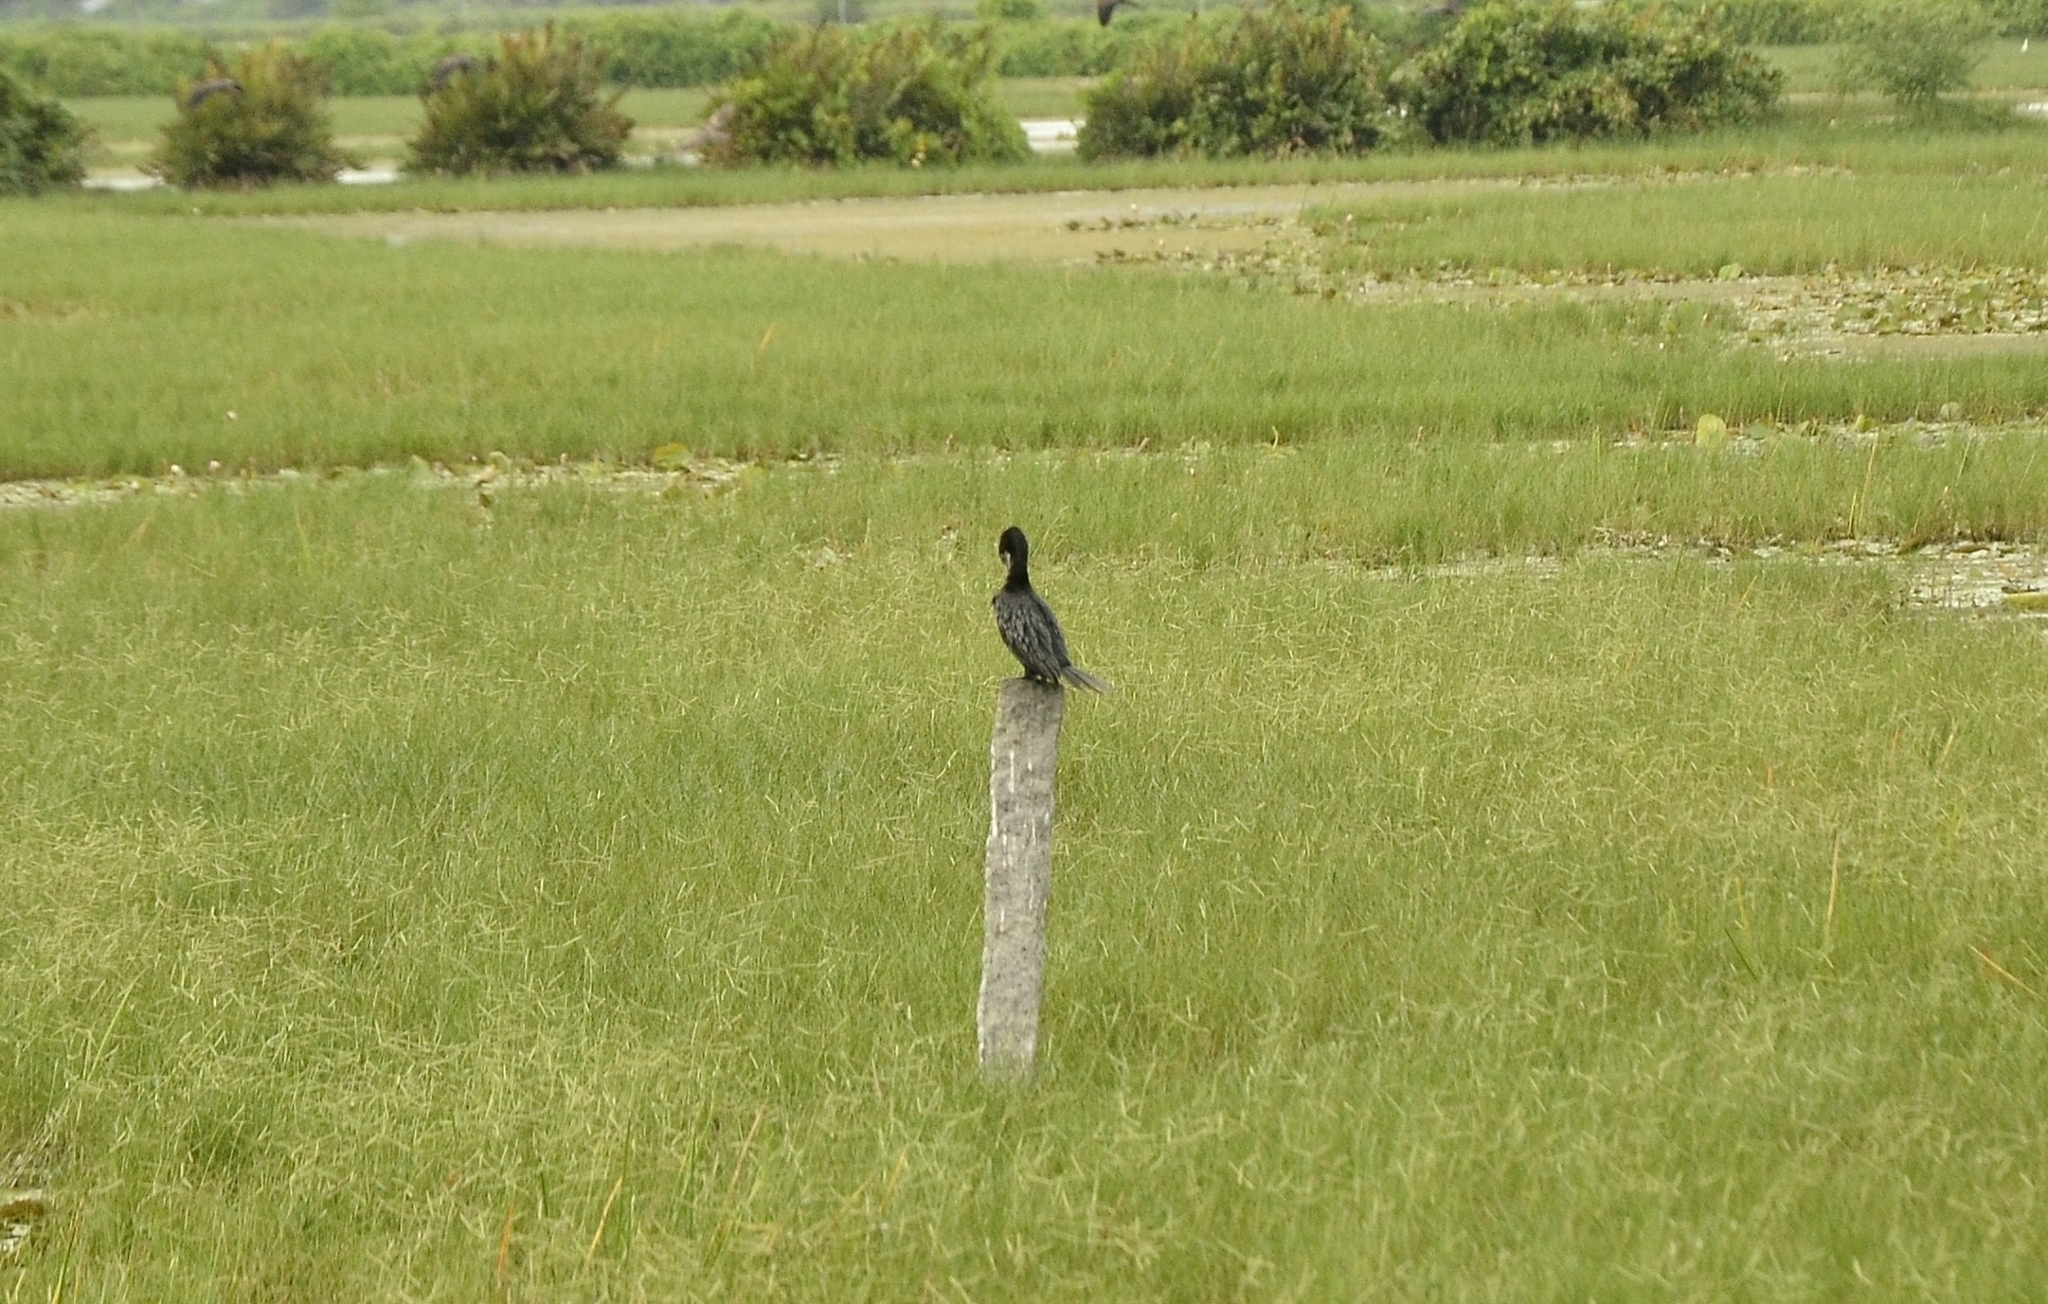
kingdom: Animalia
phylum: Chordata
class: Aves
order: Suliformes
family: Phalacrocoracidae
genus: Microcarbo
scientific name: Microcarbo niger
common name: Little cormorant
